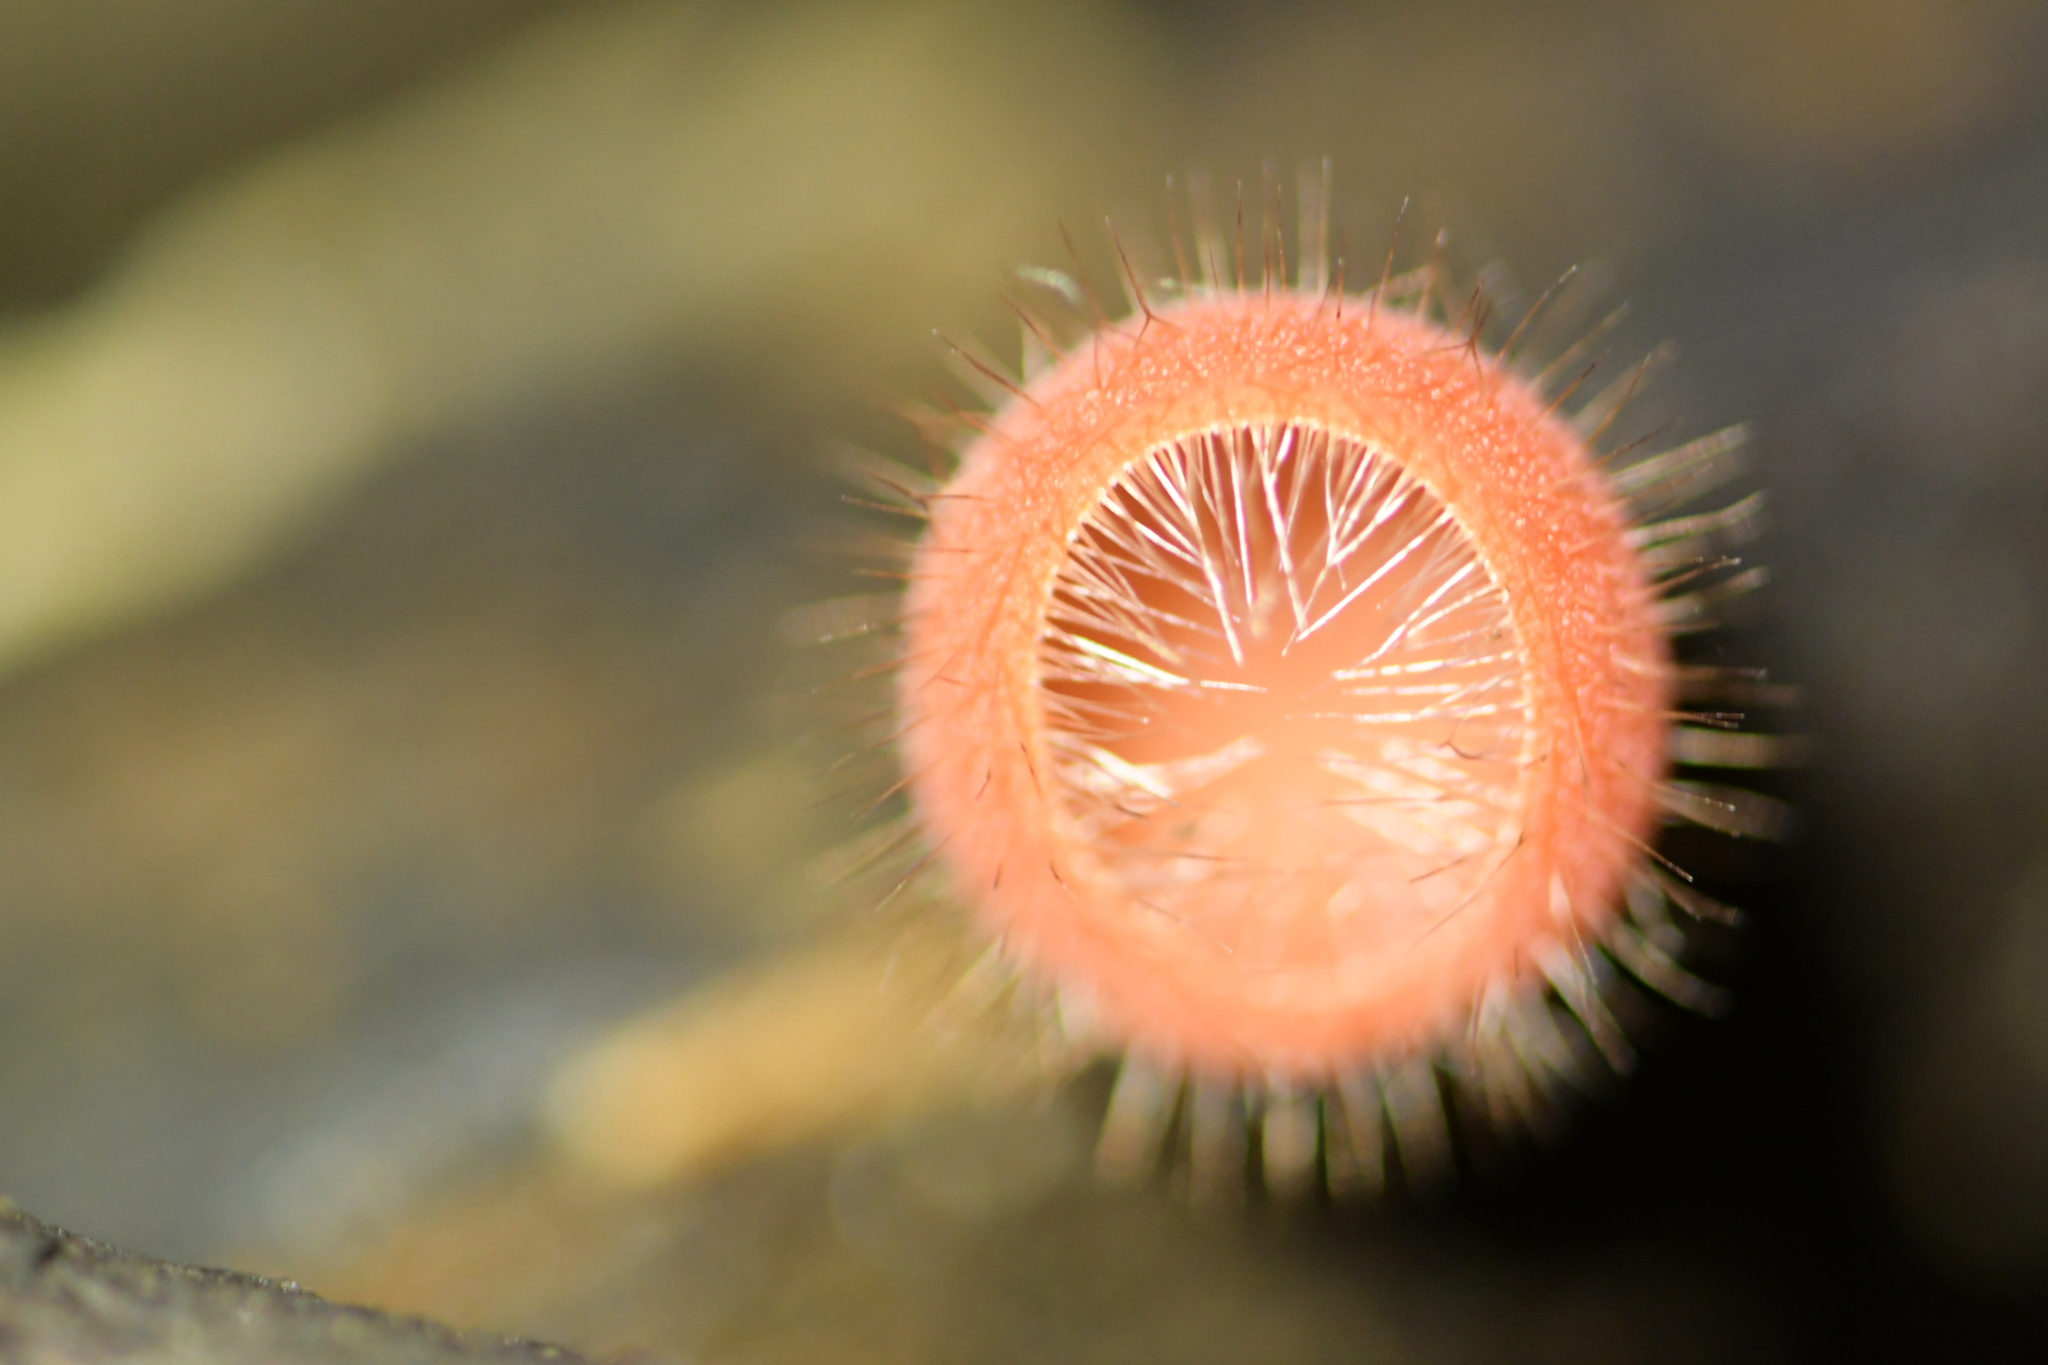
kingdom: Fungi
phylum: Ascomycota
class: Pezizomycetes
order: Pezizales
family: Sarcoscyphaceae
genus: Cookeina
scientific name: Cookeina tricholoma
